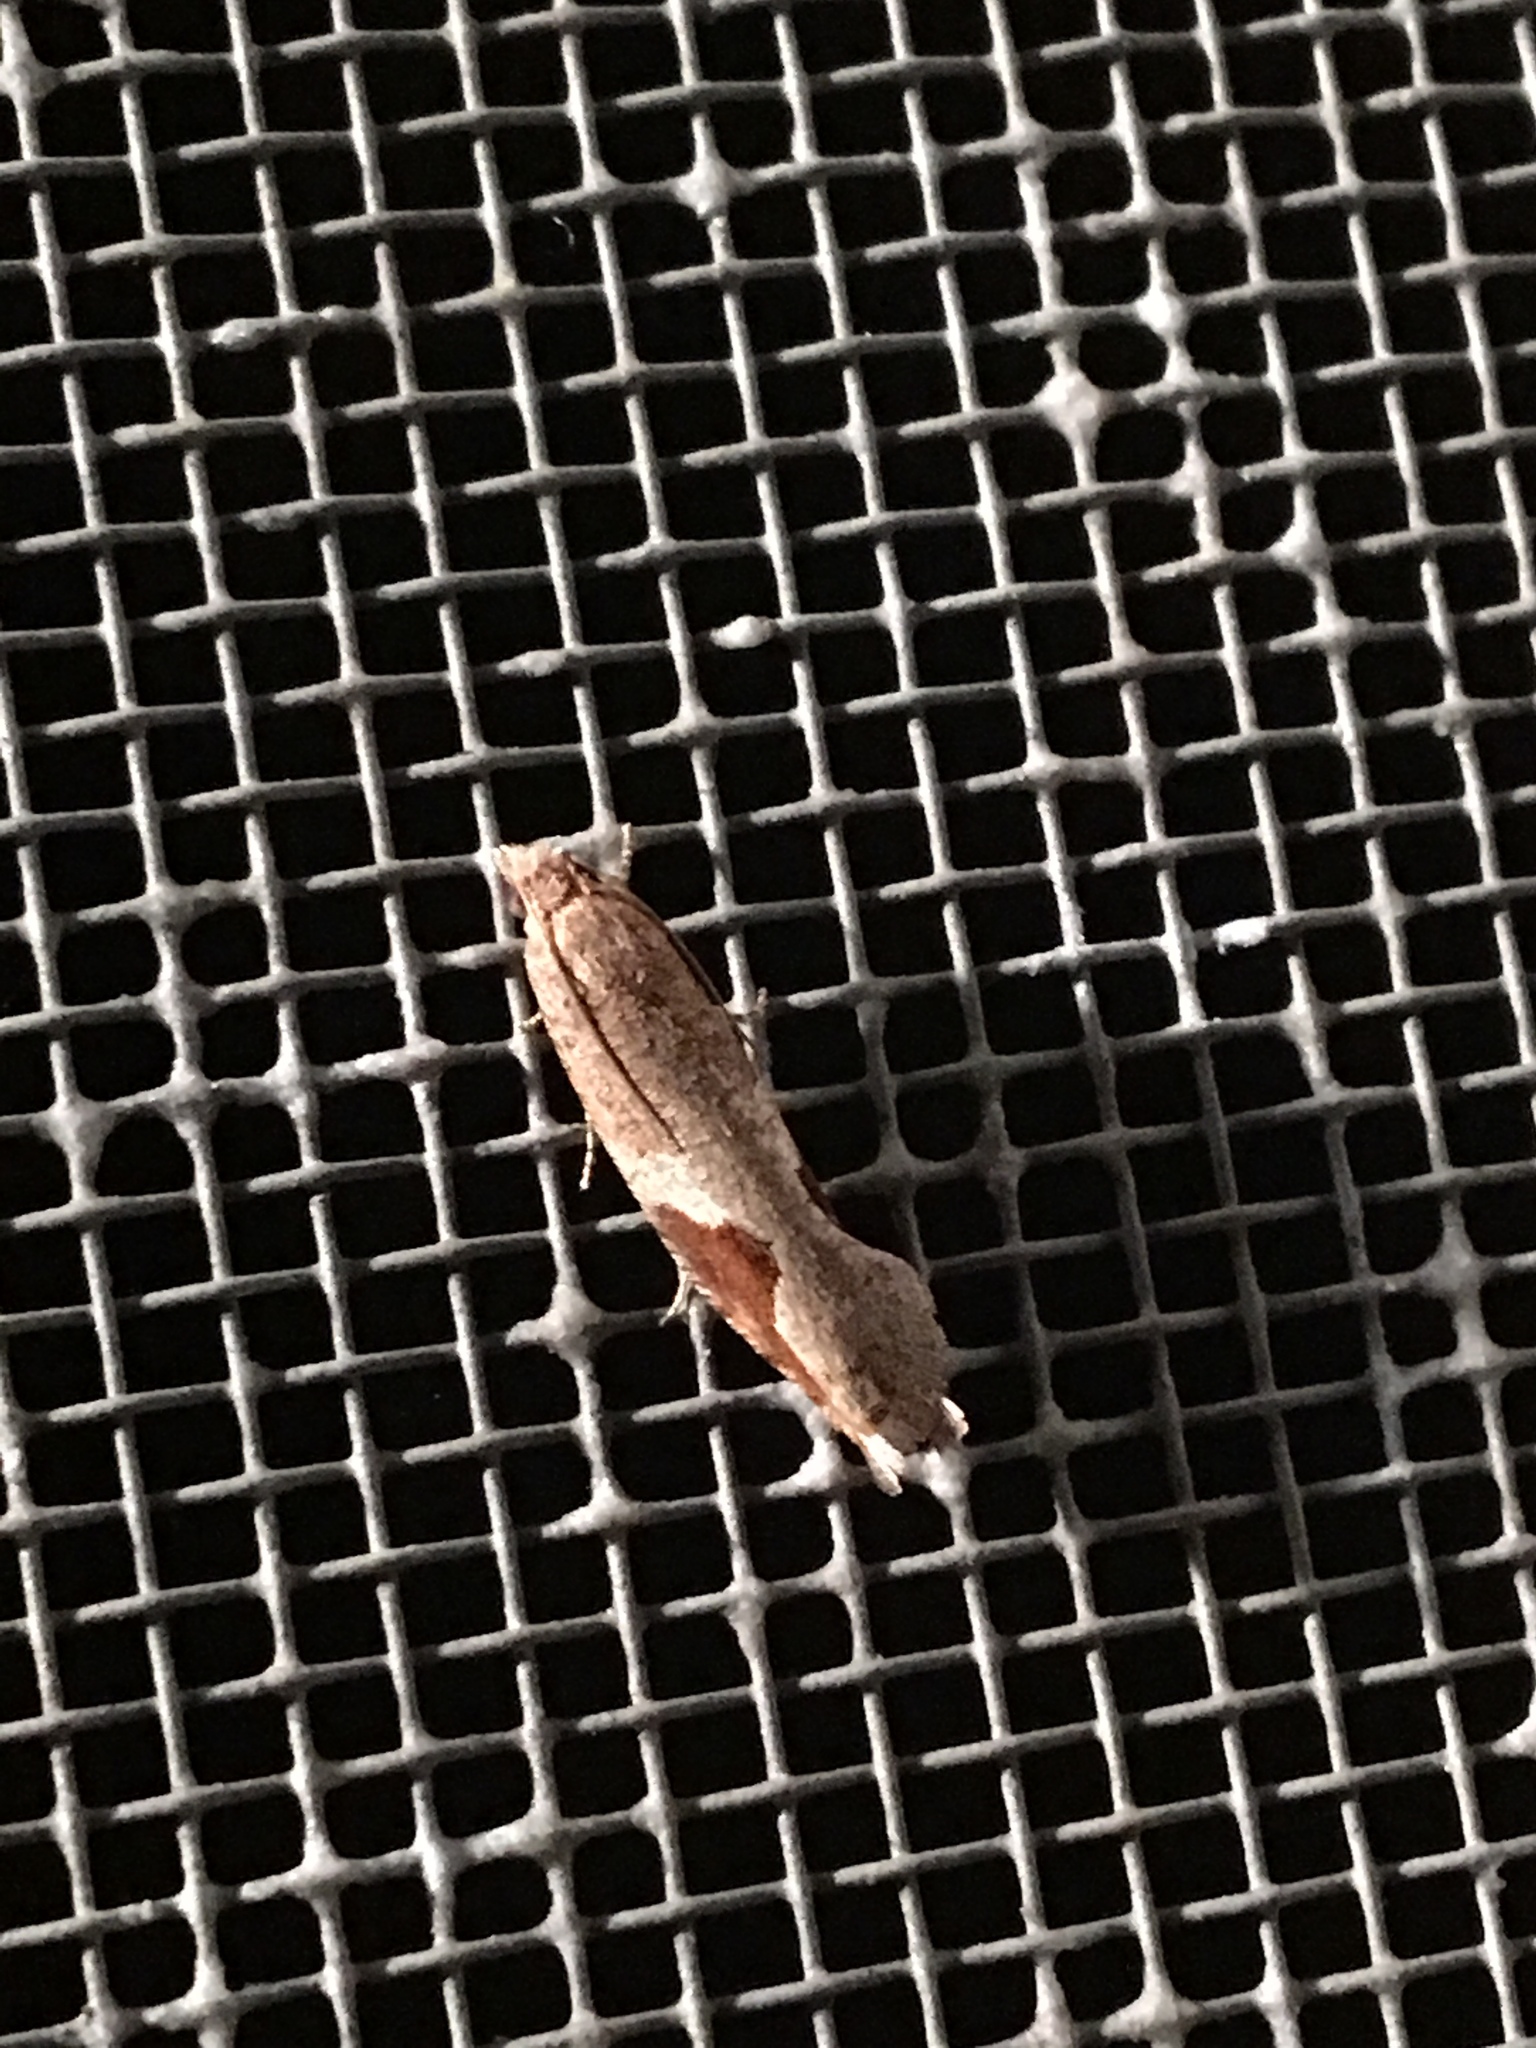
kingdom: Animalia
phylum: Arthropoda
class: Insecta
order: Lepidoptera
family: Tortricidae
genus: Pseudexentera
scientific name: Pseudexentera virginiana
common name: Virginia pseudexentera moth
